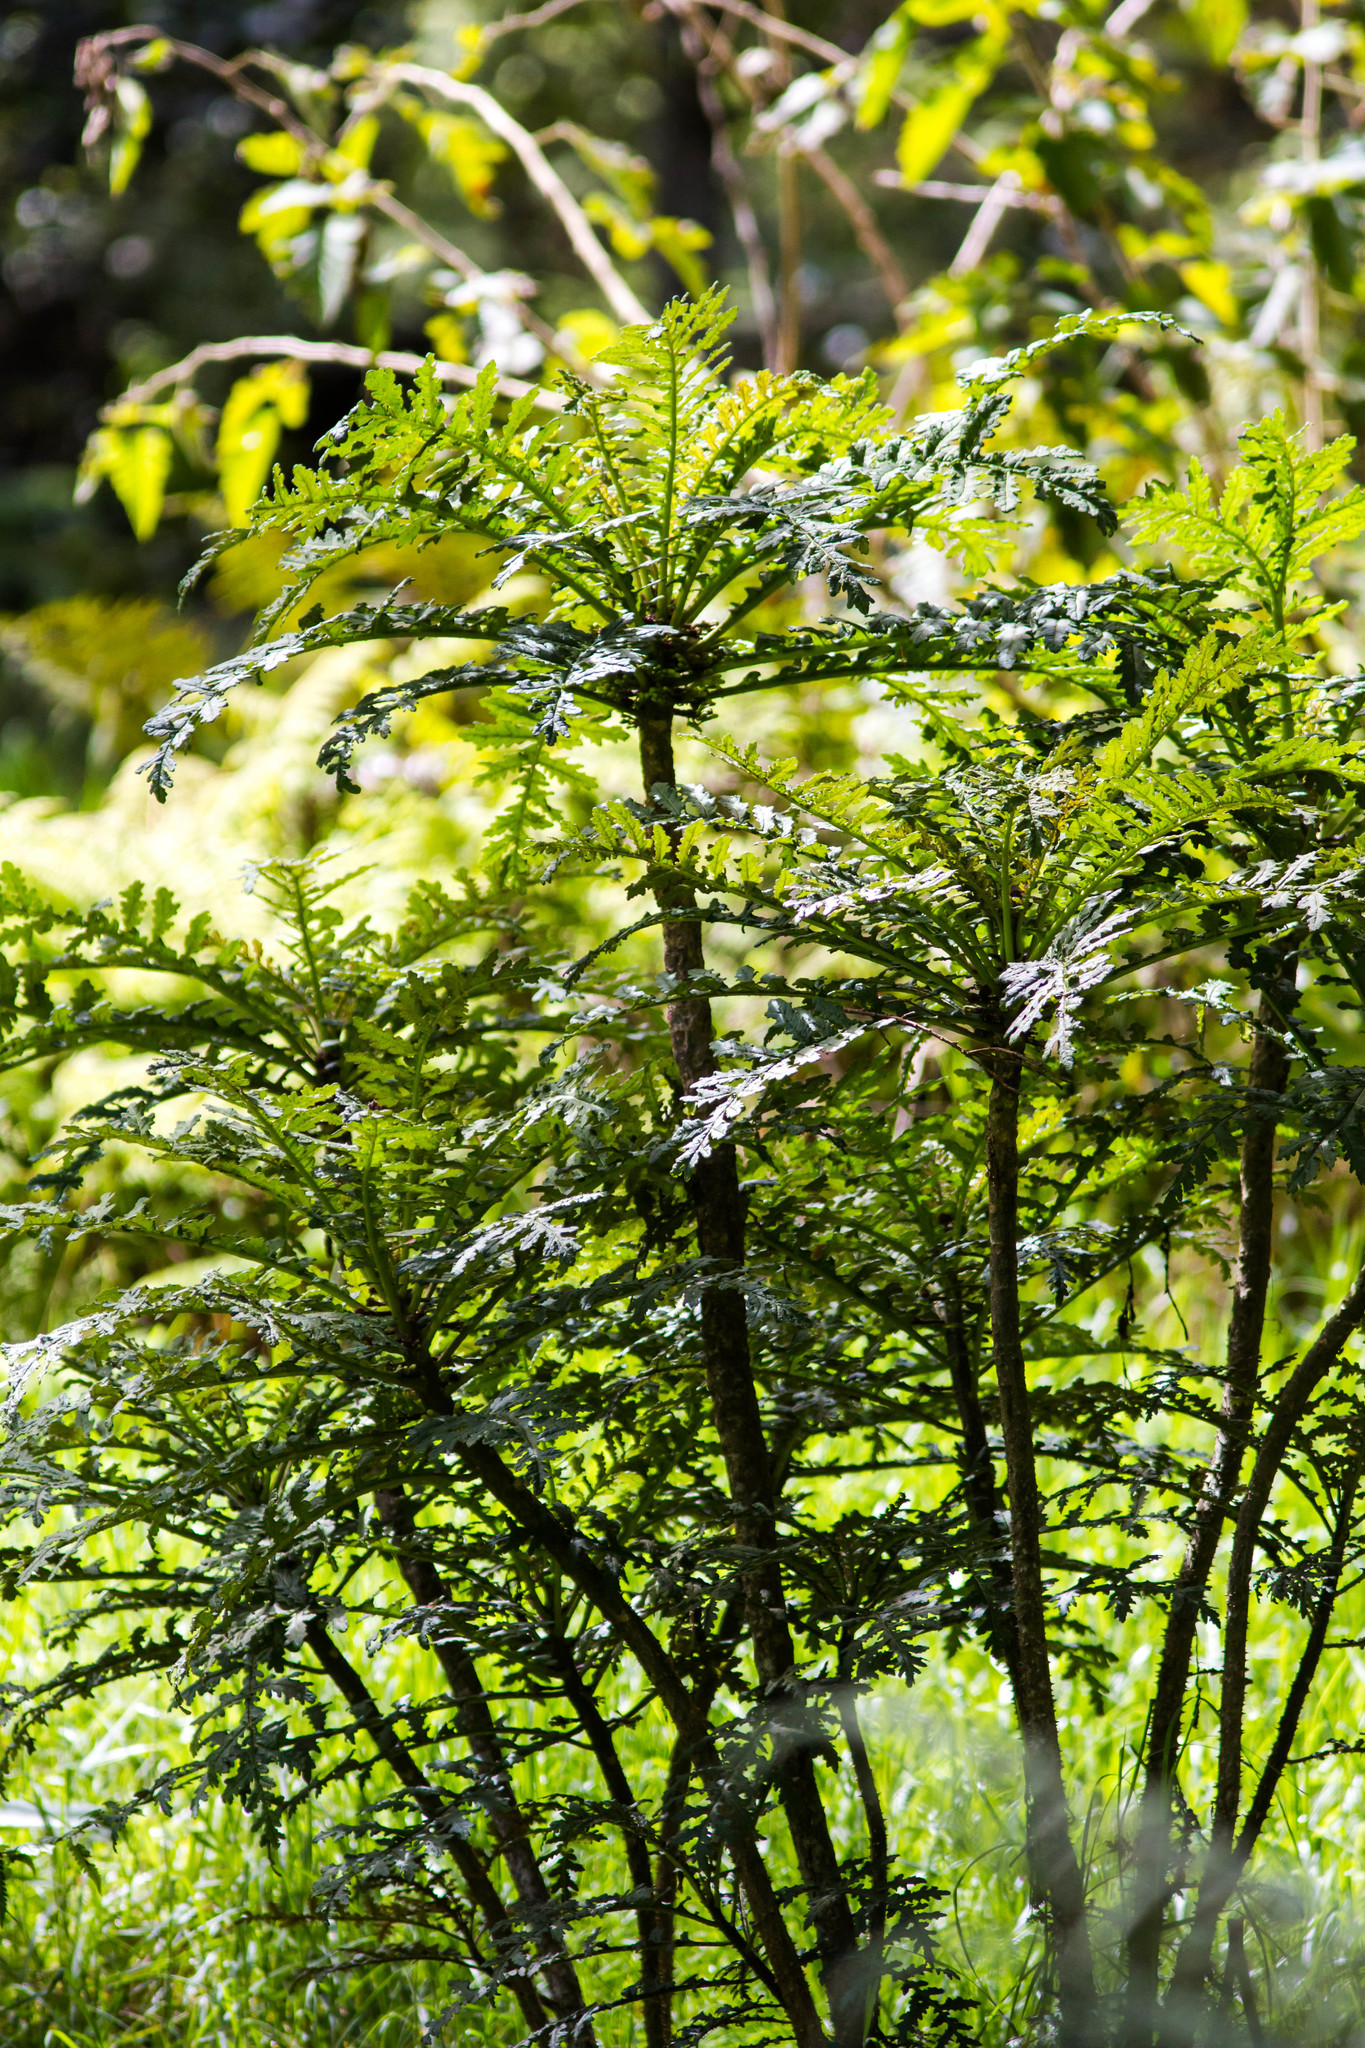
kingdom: Plantae
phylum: Tracheophyta
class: Magnoliopsida
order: Asterales
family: Campanulaceae
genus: Cyanea
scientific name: Cyanea shipmanii
